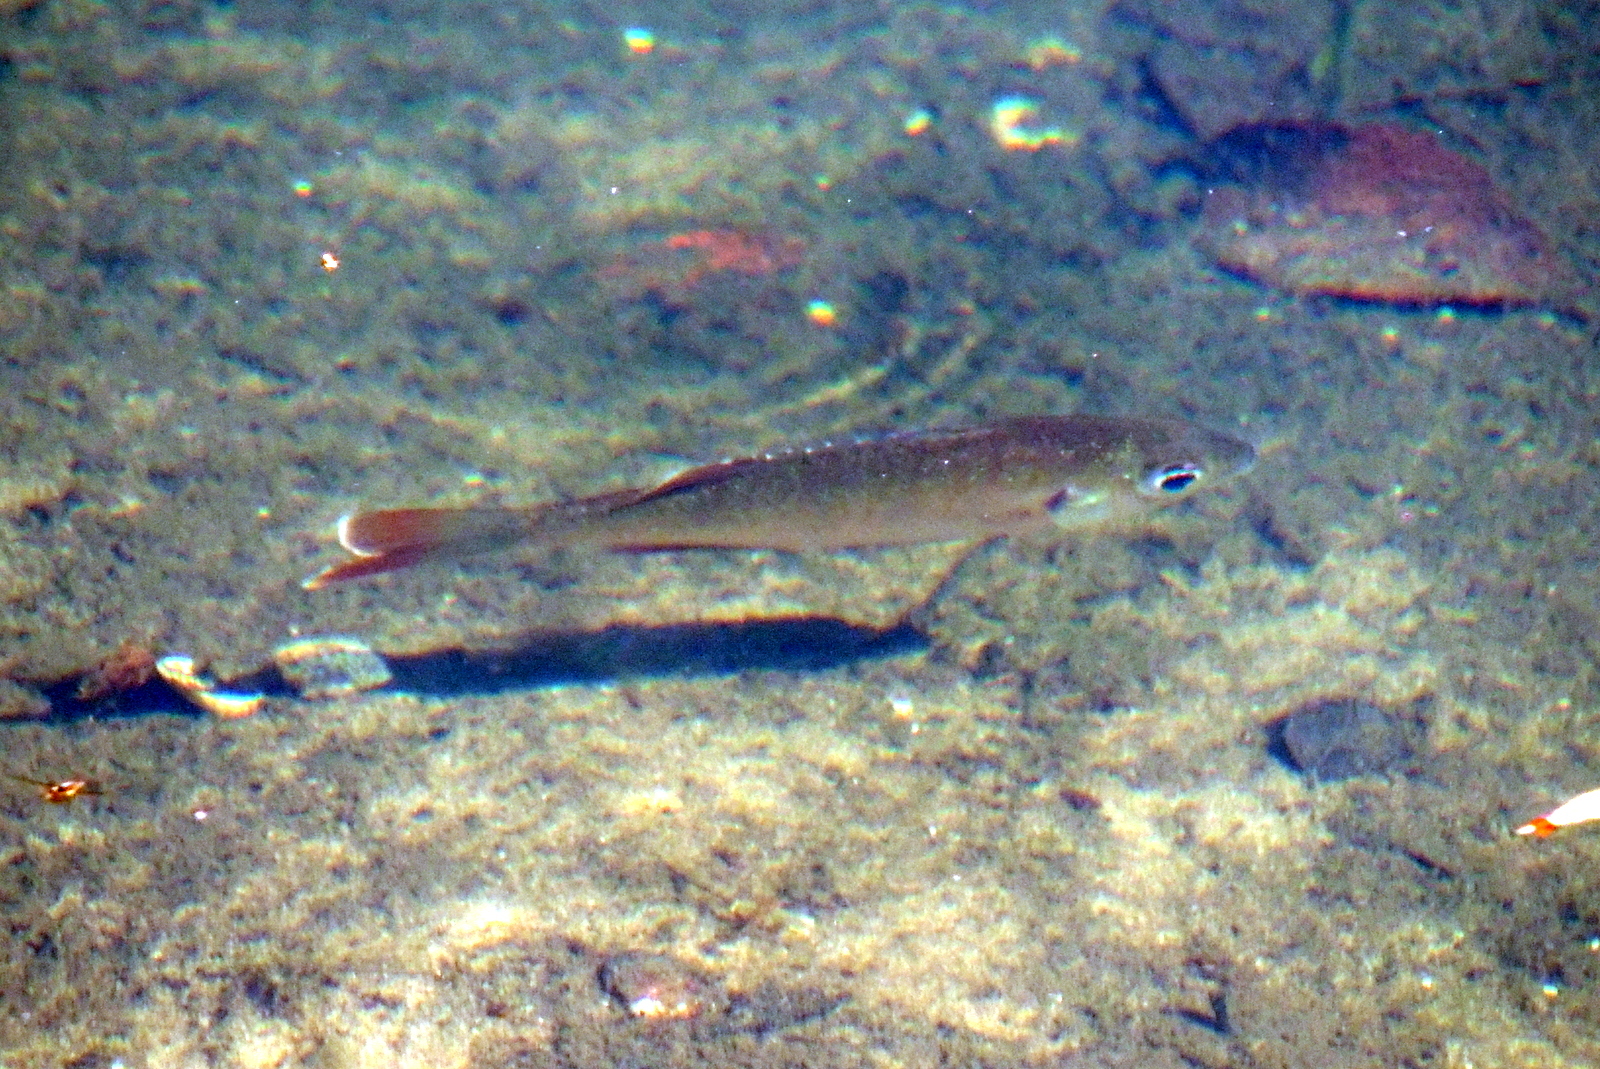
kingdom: Animalia
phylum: Chordata
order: Perciformes
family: Centrarchidae
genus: Lepomis
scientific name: Lepomis macrochirus
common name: Bluegill
